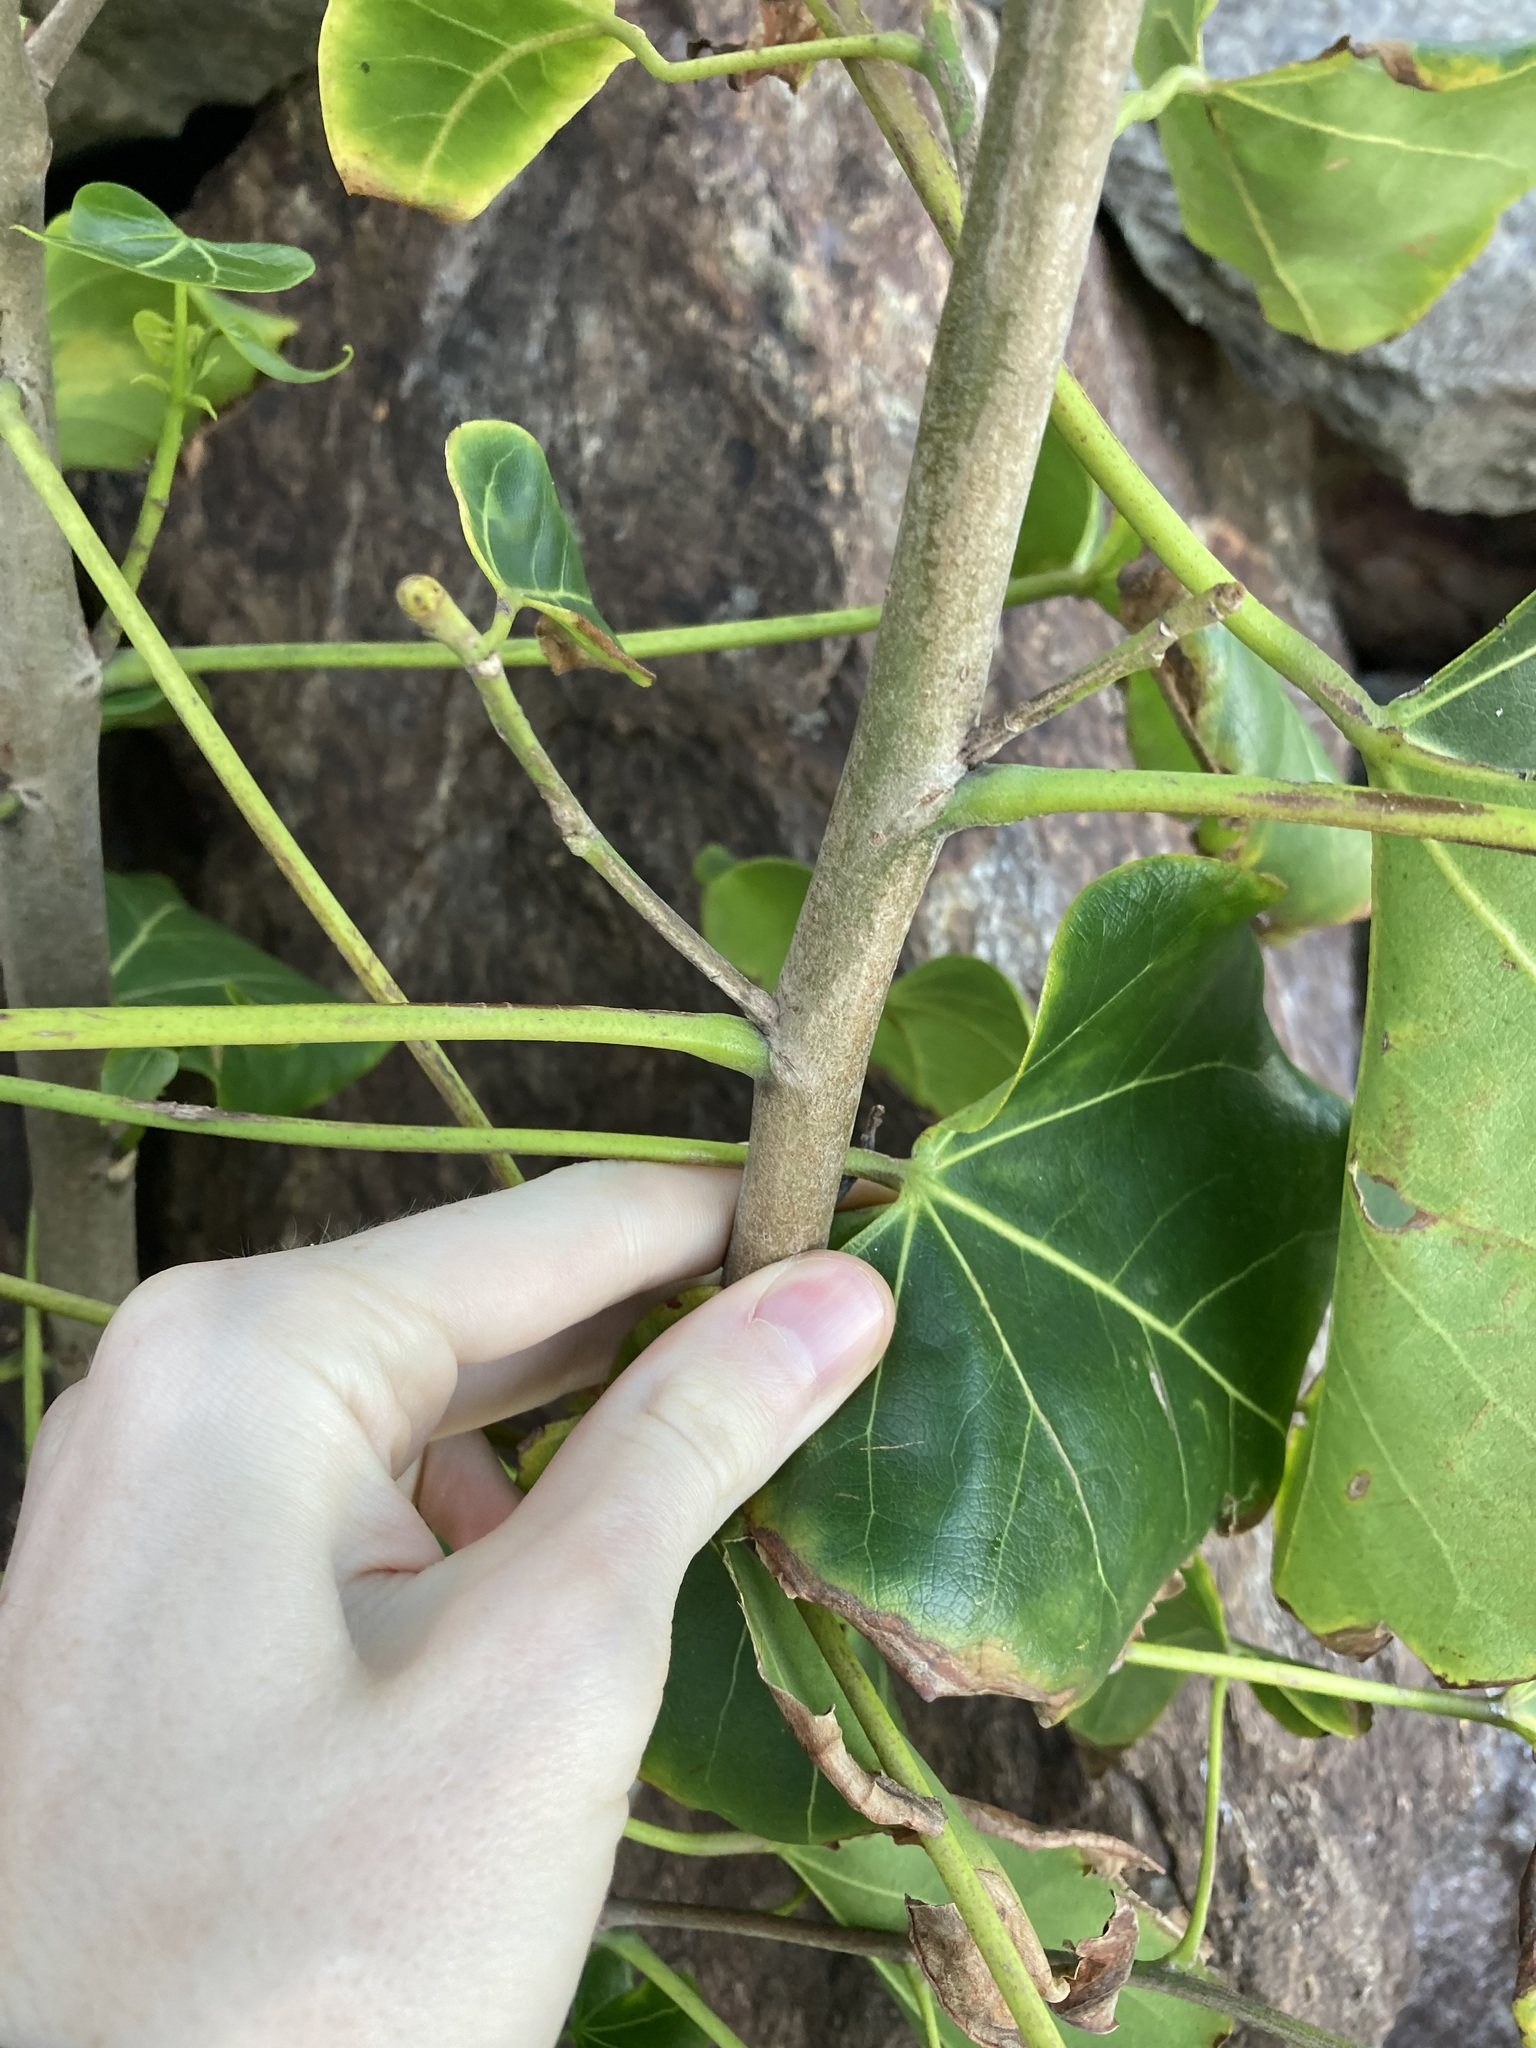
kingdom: Plantae
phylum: Tracheophyta
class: Magnoliopsida
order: Malvales
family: Malvaceae
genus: Thespesia
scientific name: Thespesia populnea
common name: Seaside mahoe
